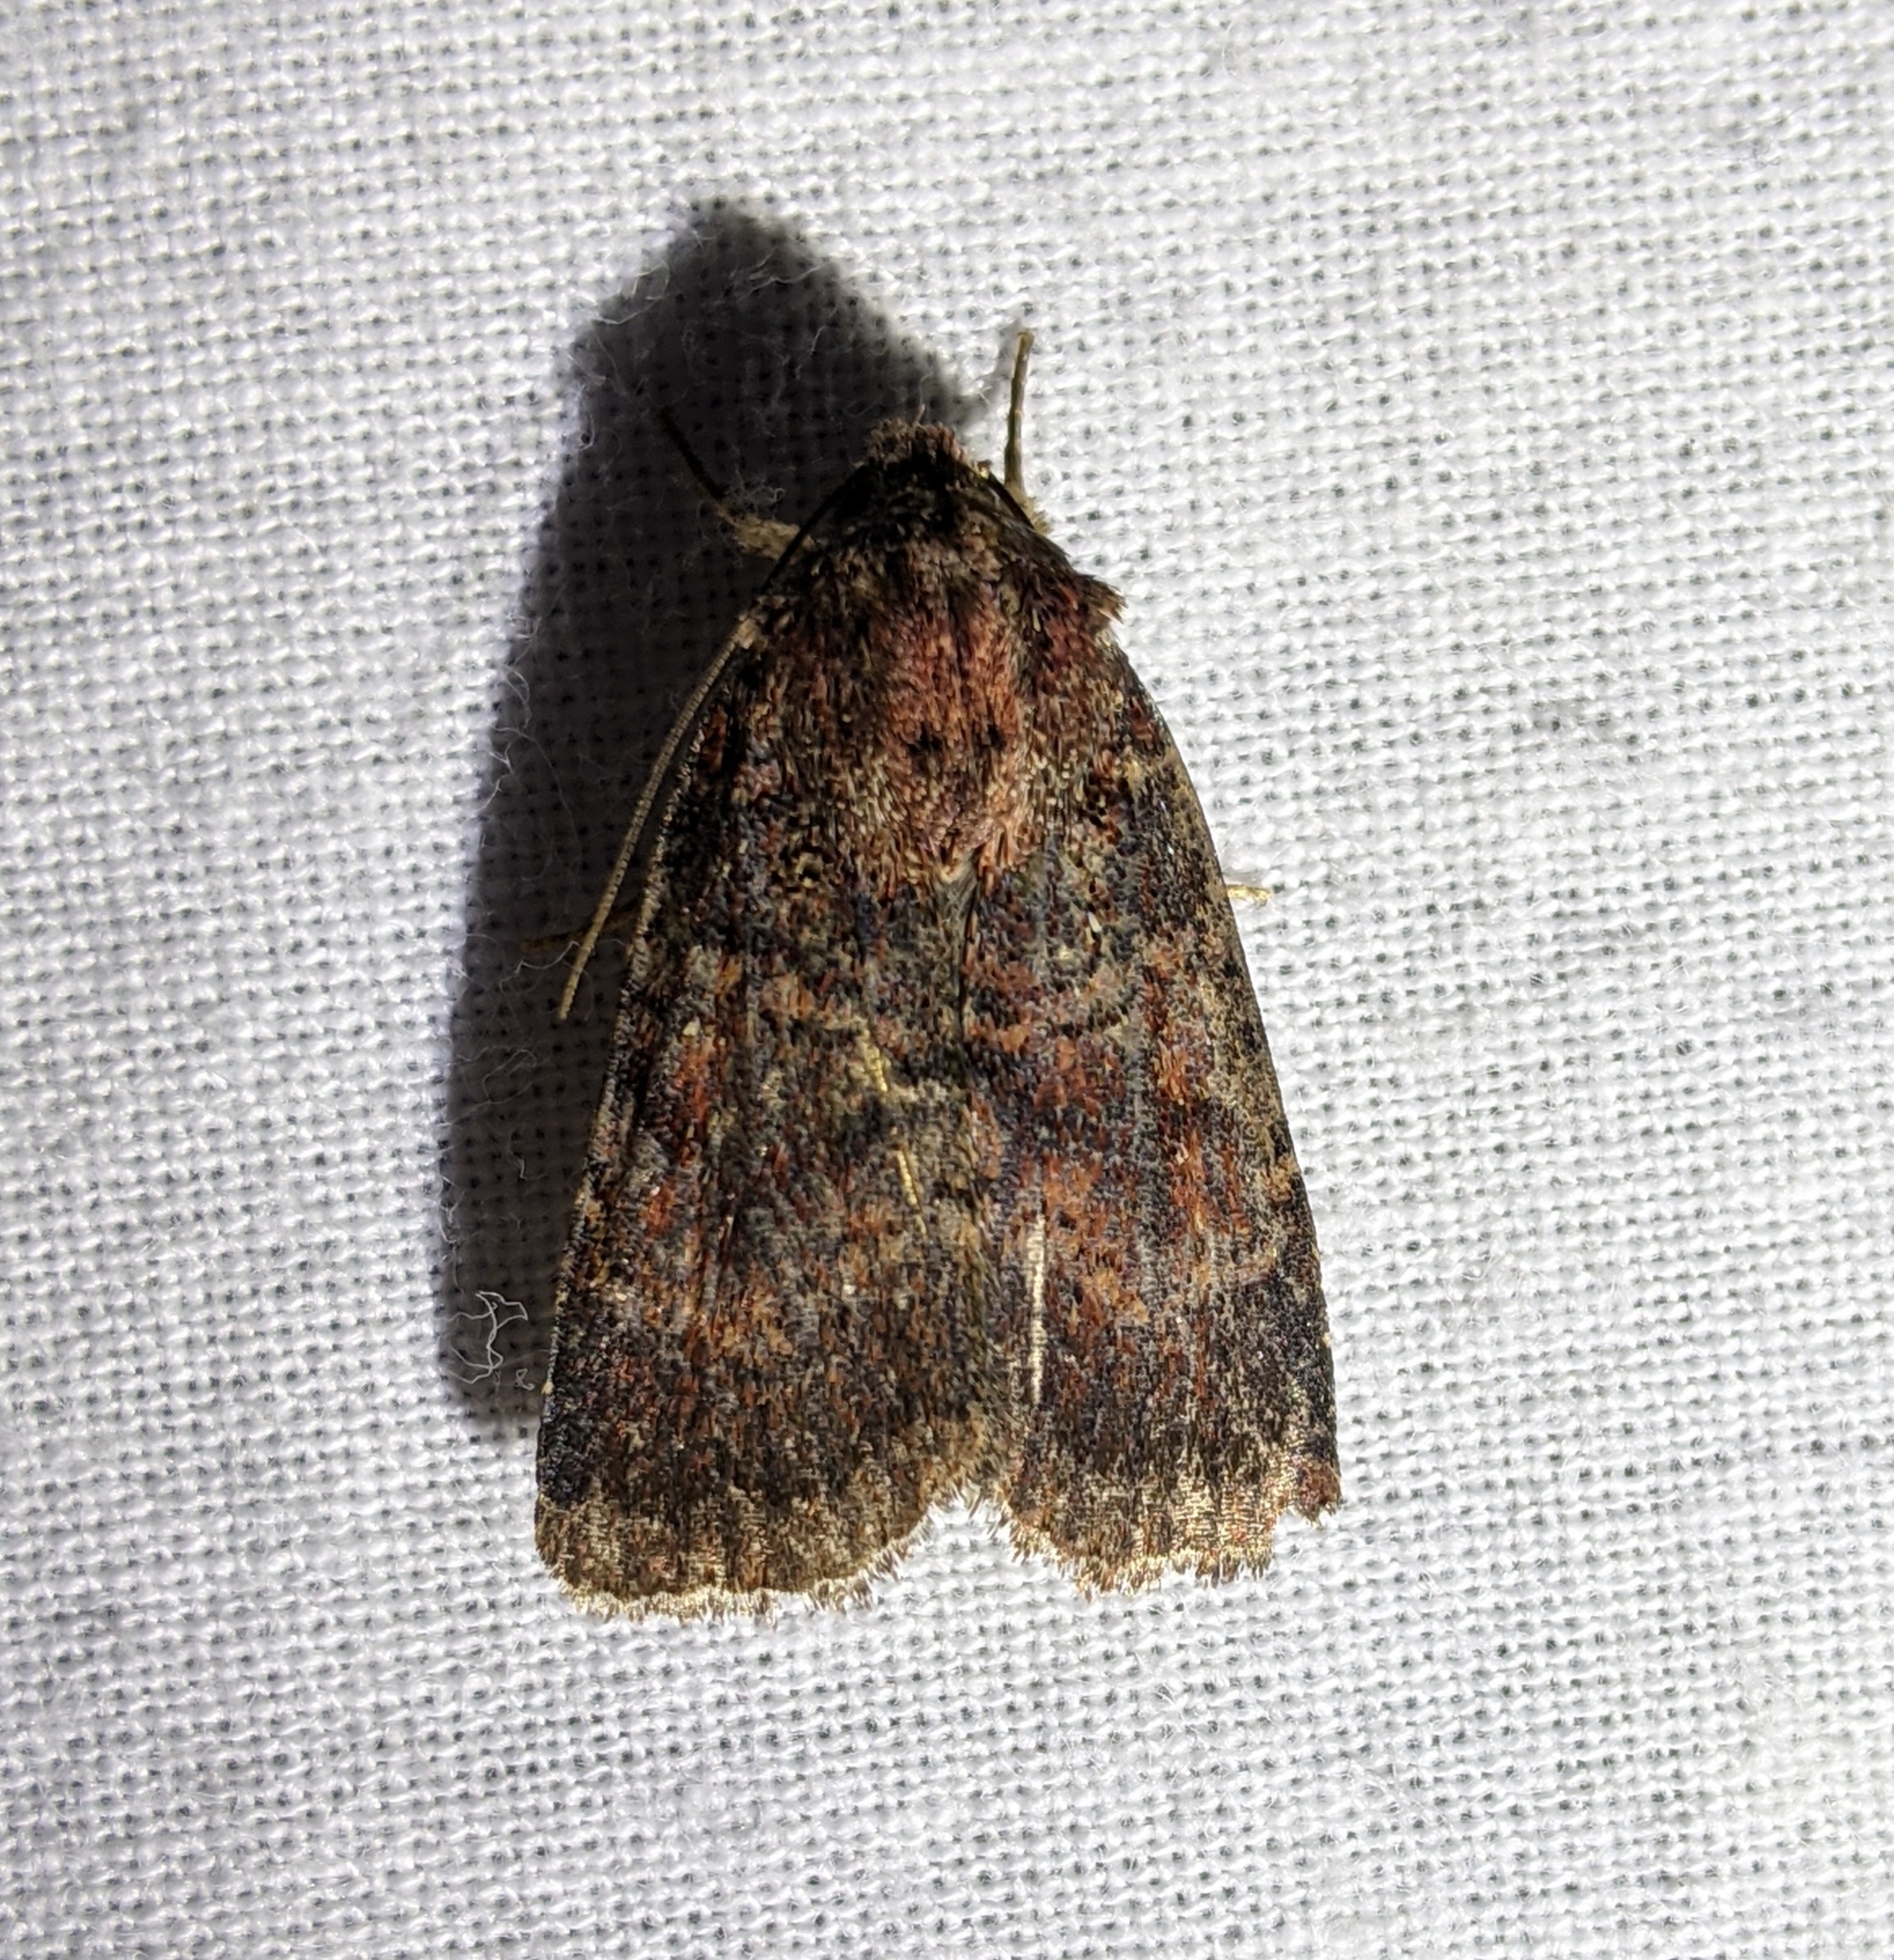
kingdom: Animalia
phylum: Arthropoda
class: Insecta
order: Lepidoptera
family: Noctuidae
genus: Anhimella
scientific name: Anhimella perbrunnea
